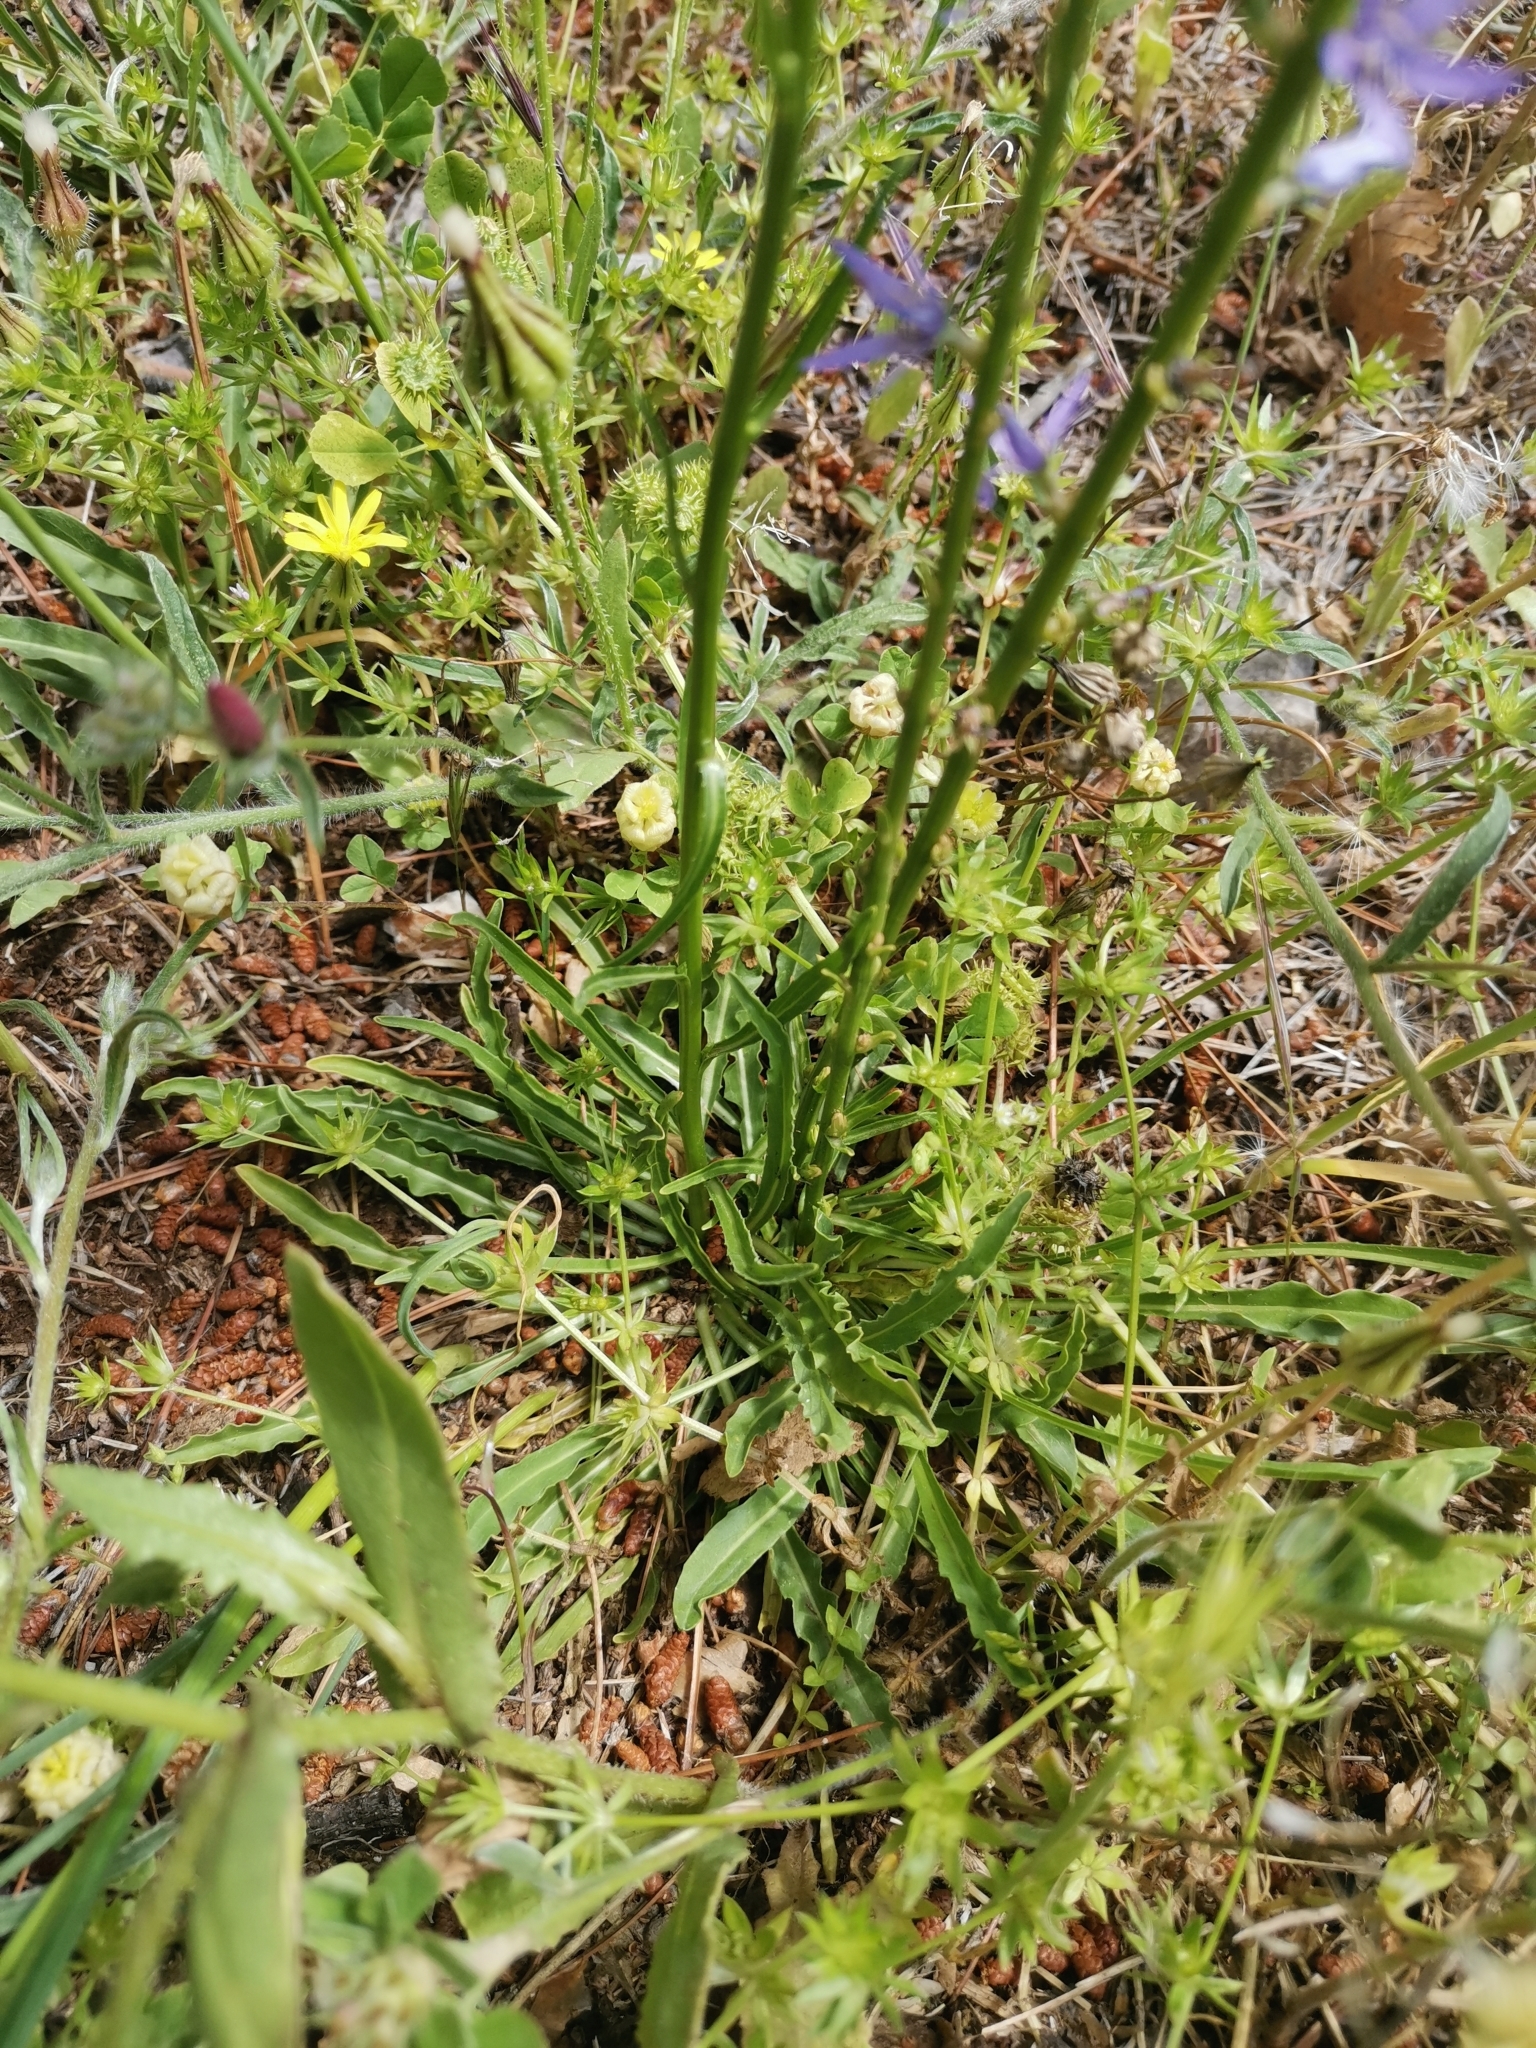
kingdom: Plantae
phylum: Tracheophyta
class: Magnoliopsida
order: Asterales
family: Campanulaceae
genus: Asyneuma
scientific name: Asyneuma limonifolium
